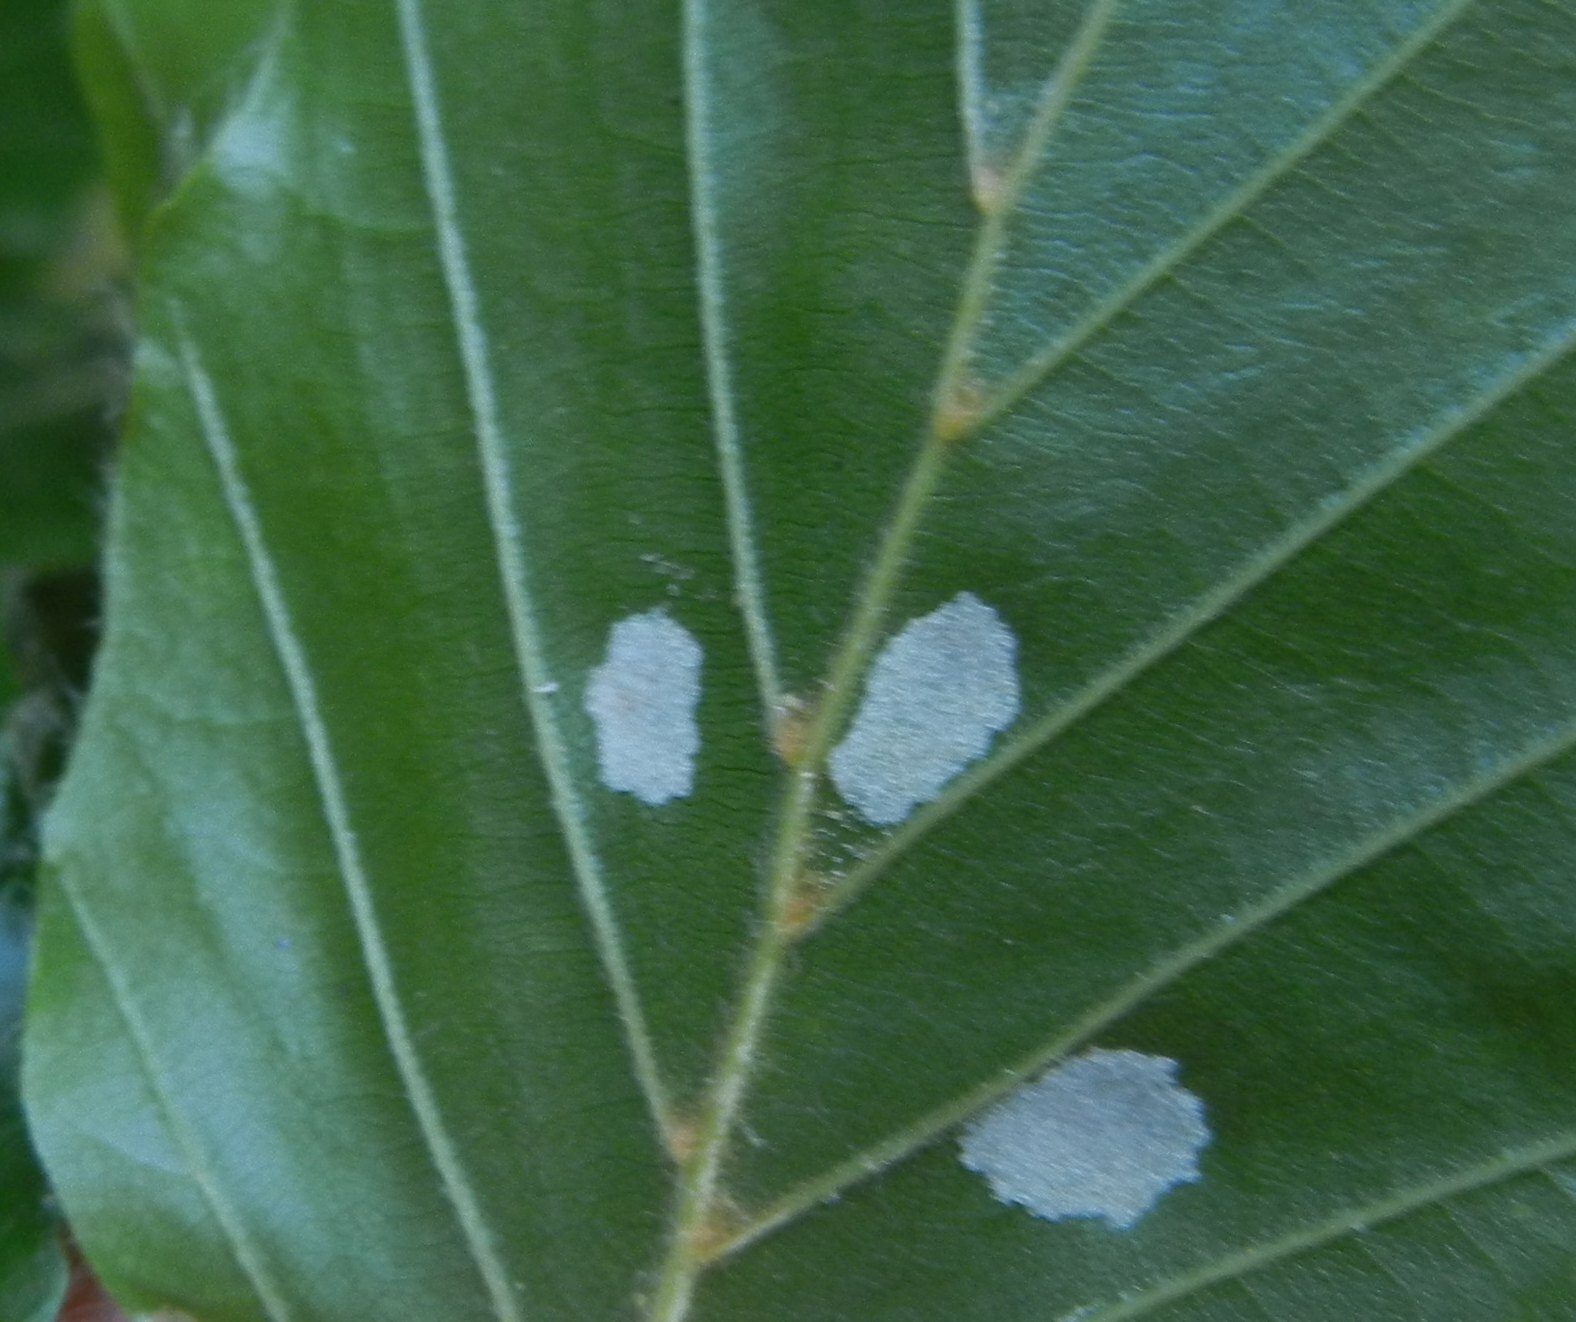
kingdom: Animalia
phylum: Arthropoda
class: Arachnida
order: Trombidiformes
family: Eriophyidae
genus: Aceria
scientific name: Aceria nervisequa
